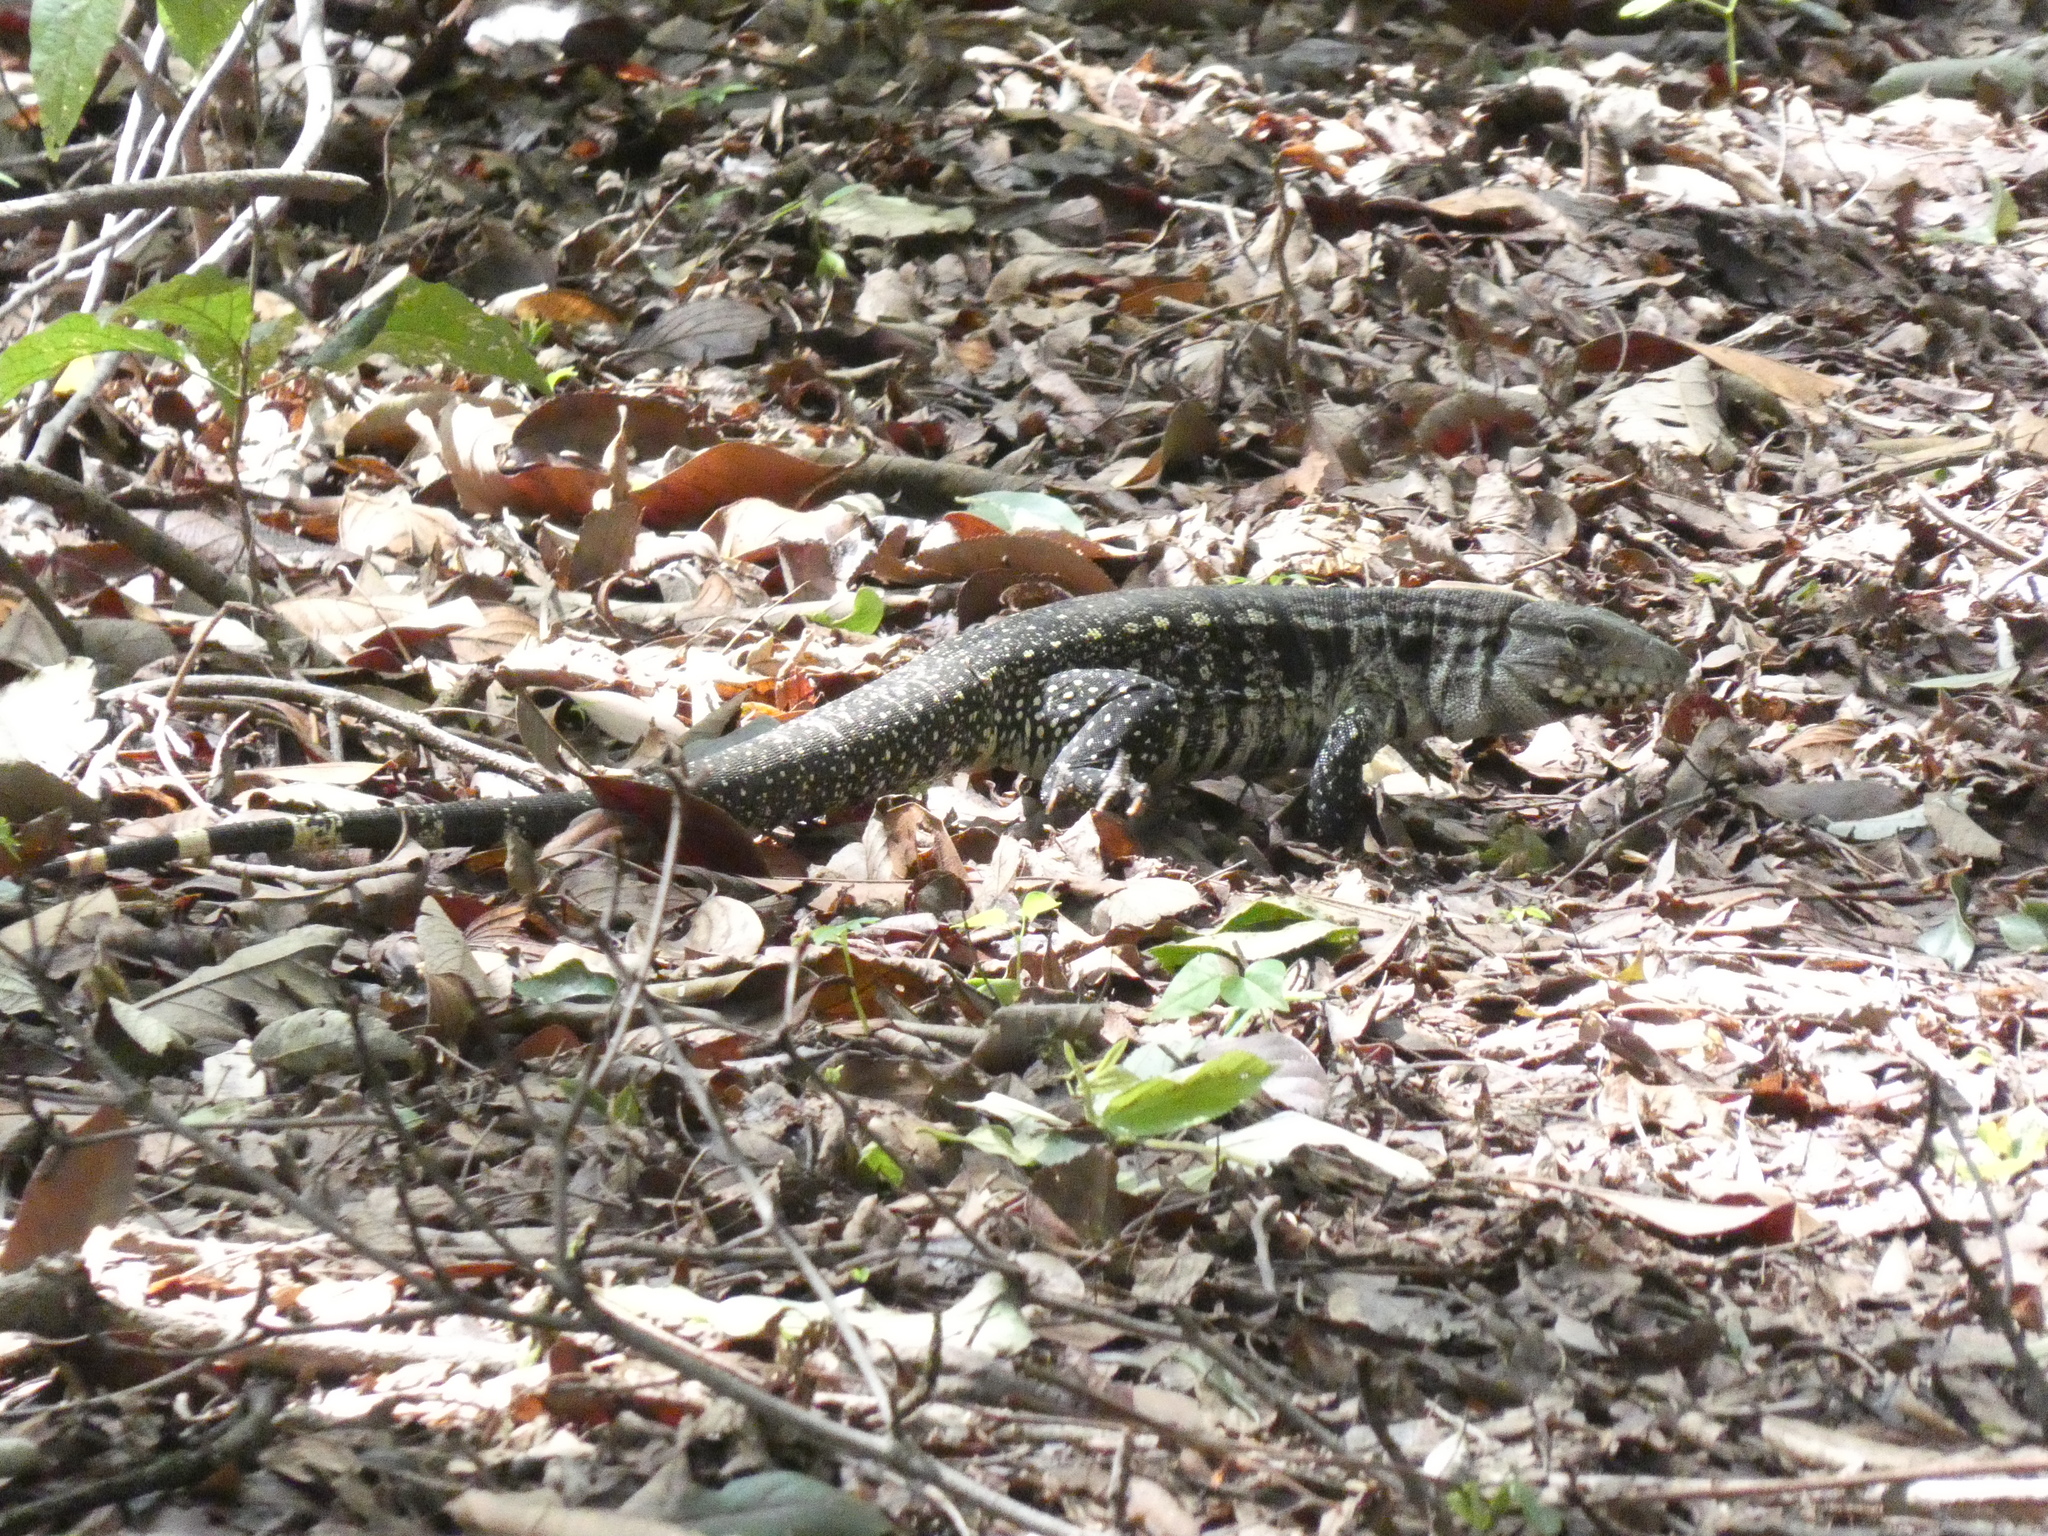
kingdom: Animalia
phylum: Chordata
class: Squamata
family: Teiidae
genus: Salvator
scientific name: Salvator merianae
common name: Argentine black and white tegu
